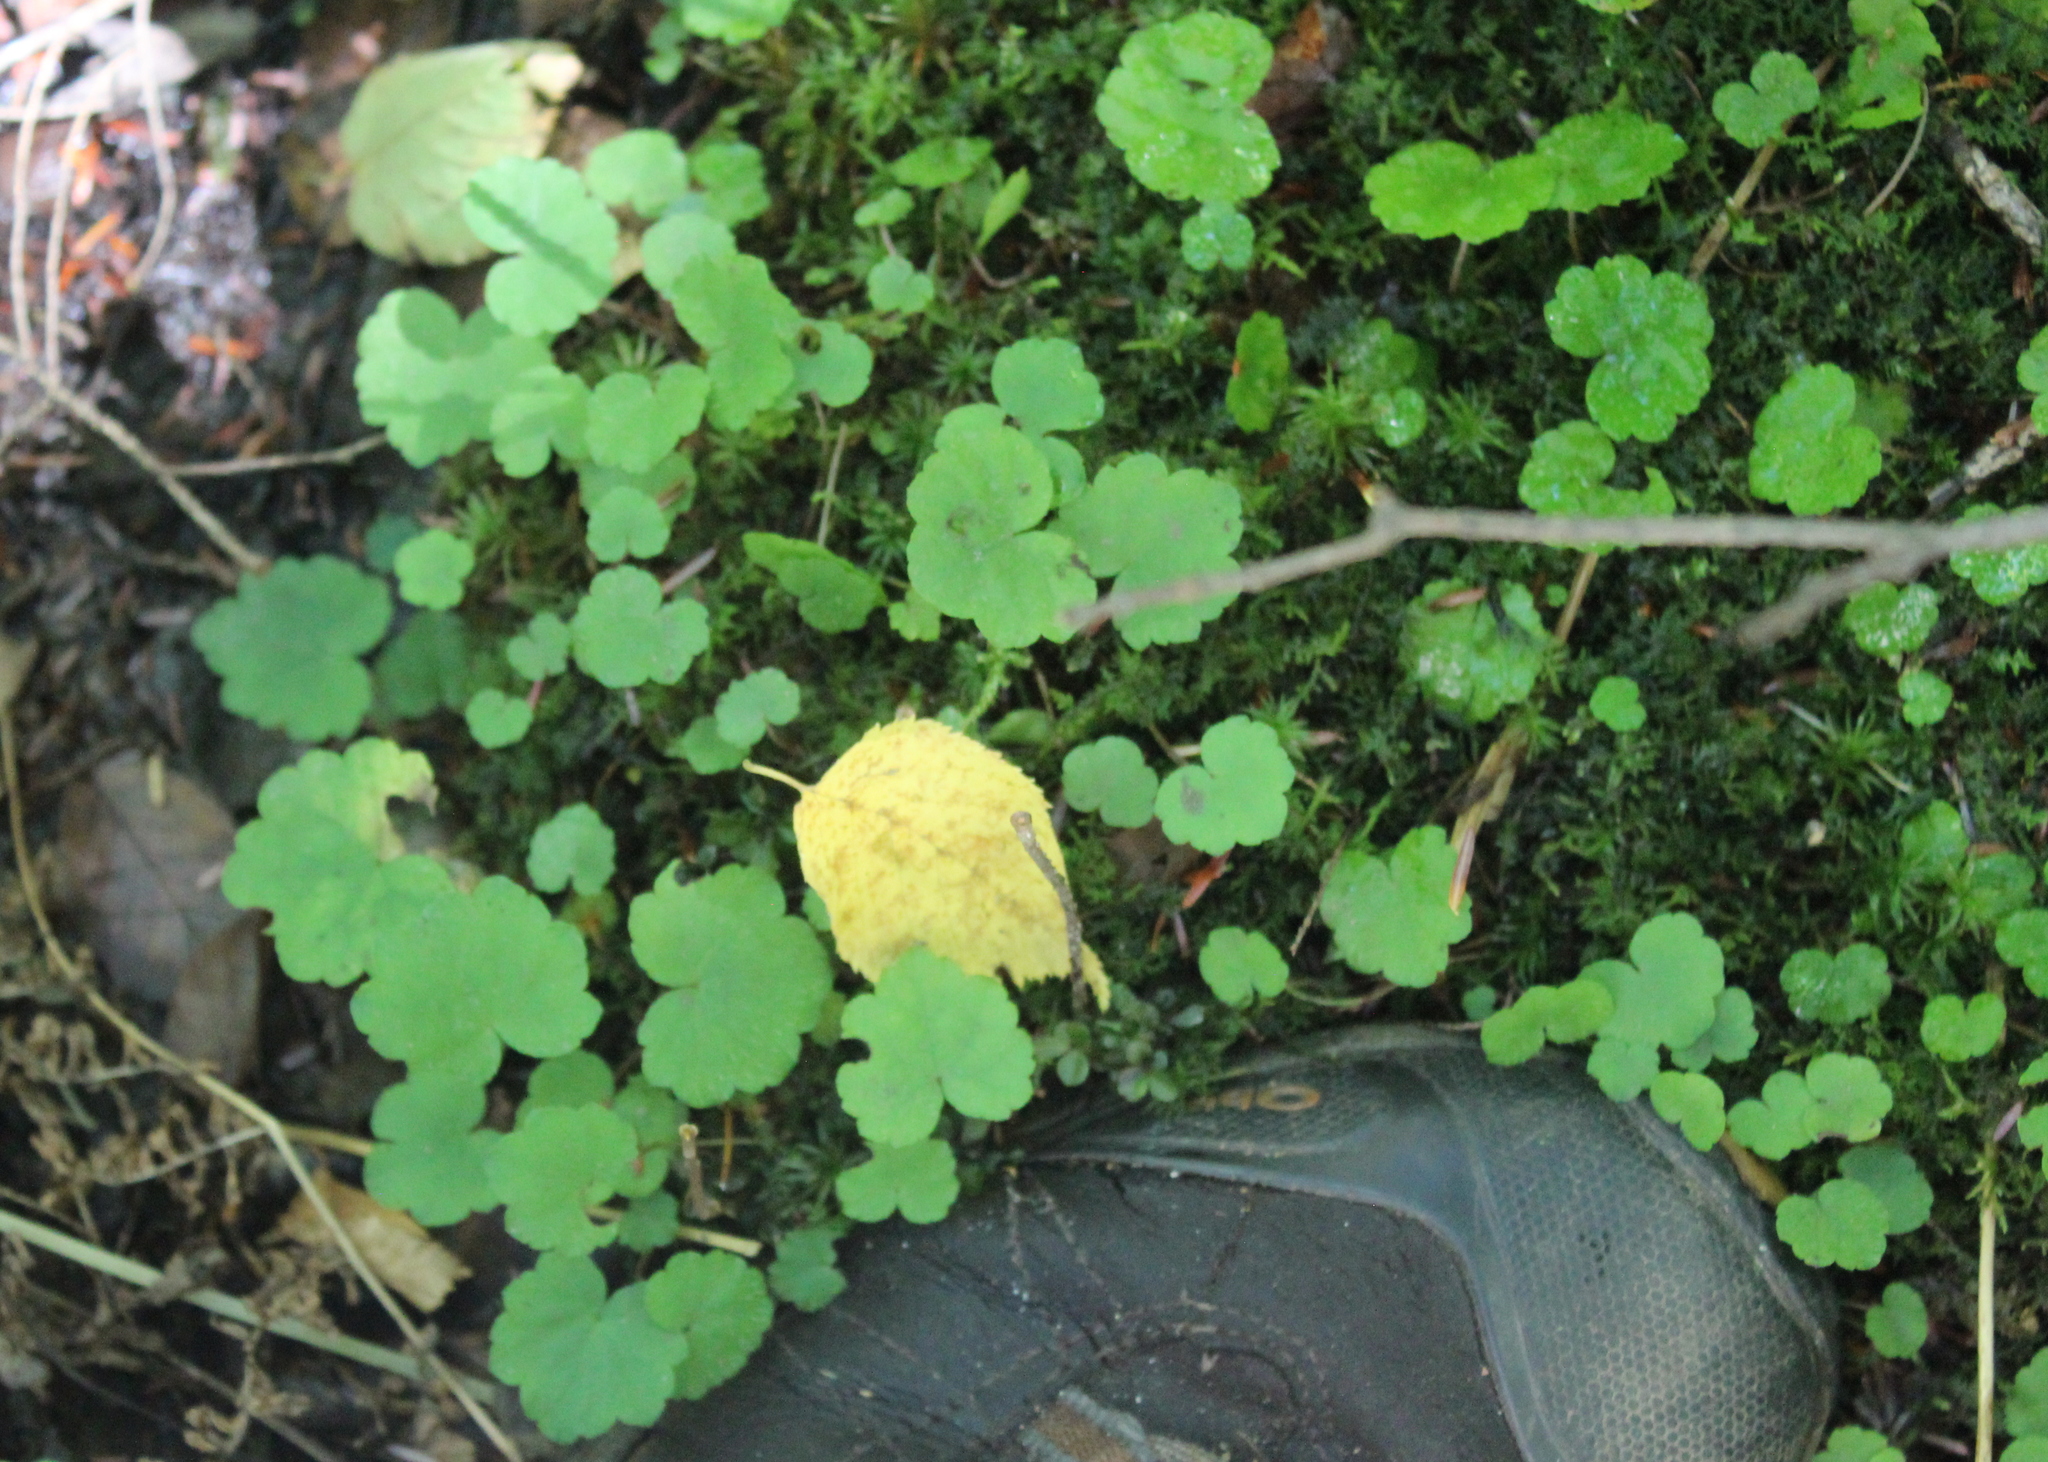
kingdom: Plantae
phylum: Tracheophyta
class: Magnoliopsida
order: Saxifragales
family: Saxifragaceae
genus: Mitella
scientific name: Mitella nuda
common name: Bare-stemmed bishop's-cap
